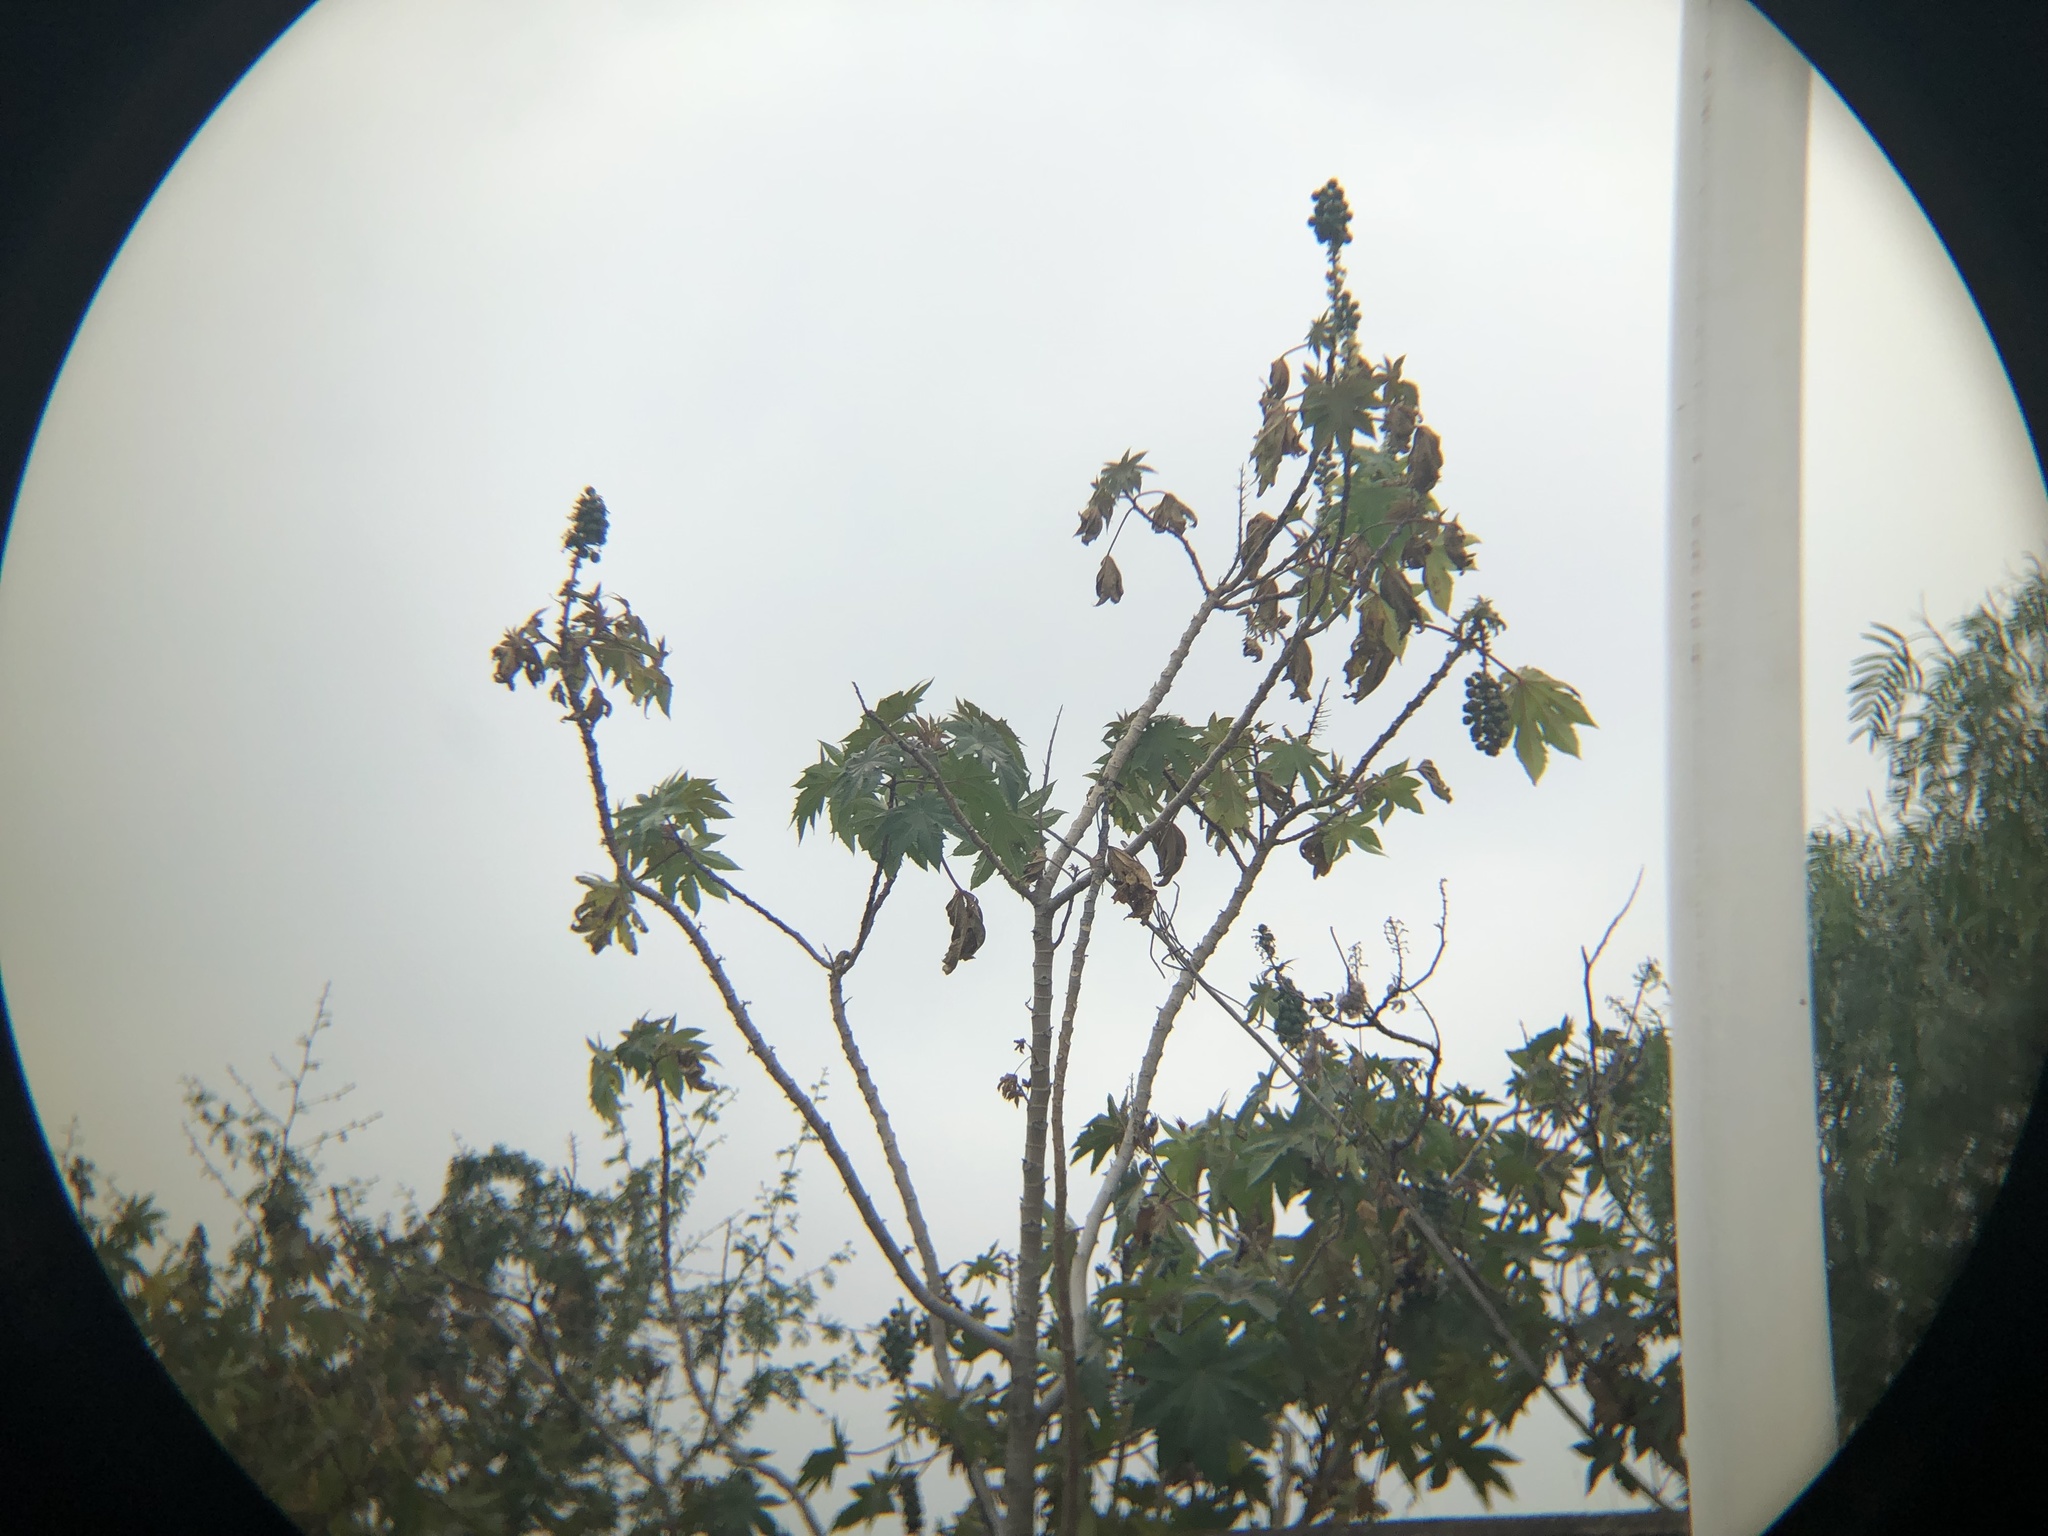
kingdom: Plantae
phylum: Tracheophyta
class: Magnoliopsida
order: Malpighiales
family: Euphorbiaceae
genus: Ricinus
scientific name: Ricinus communis
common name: Castor-oil-plant
